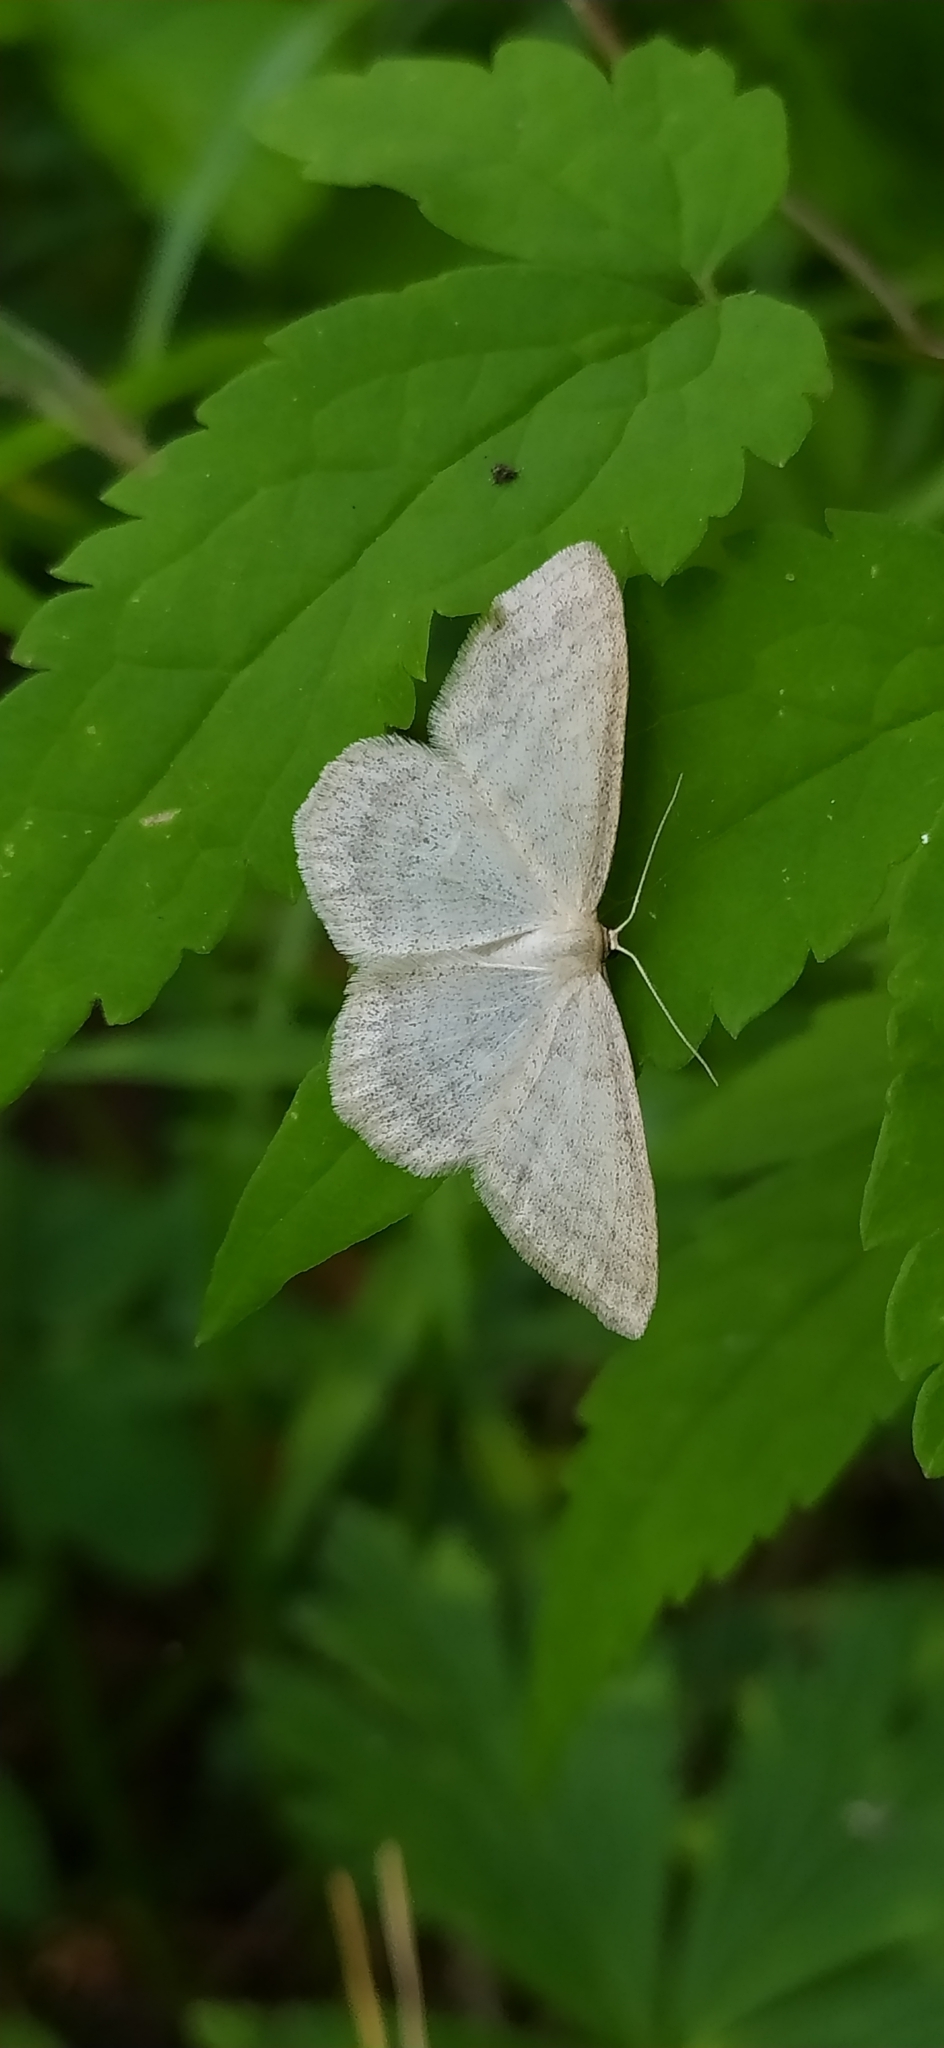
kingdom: Animalia
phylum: Arthropoda
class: Insecta
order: Lepidoptera
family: Geometridae
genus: Scopula
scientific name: Scopula ternata
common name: Smoky wave
